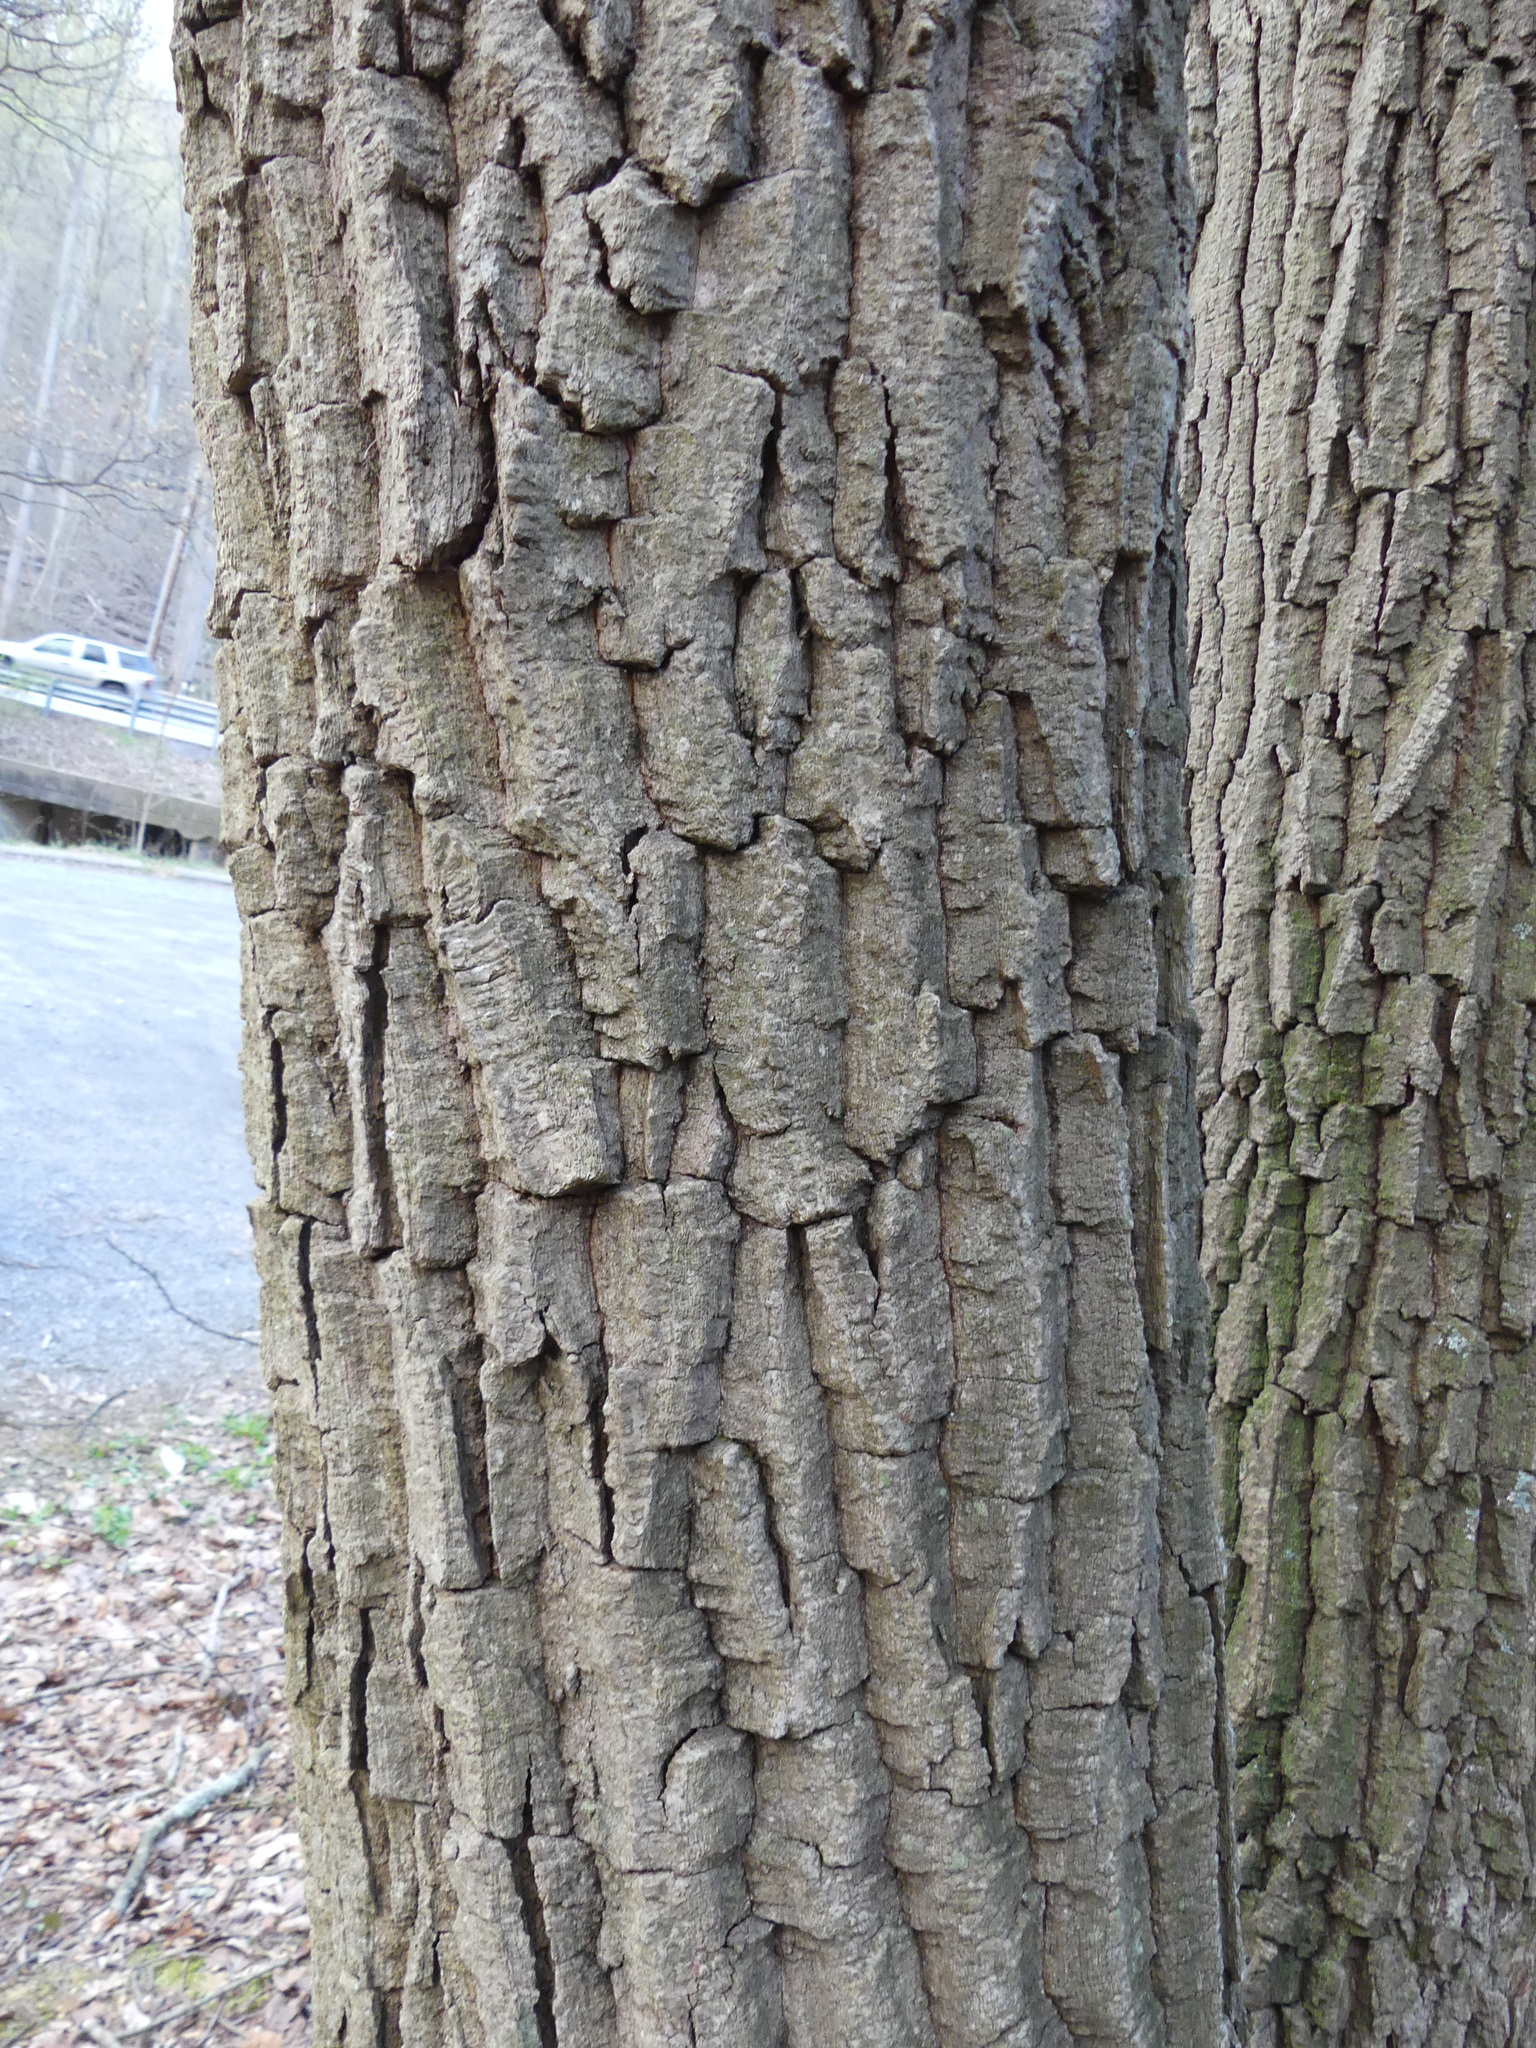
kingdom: Plantae
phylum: Tracheophyta
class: Magnoliopsida
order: Fagales
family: Fagaceae
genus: Quercus
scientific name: Quercus montana
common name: Chestnut oak
